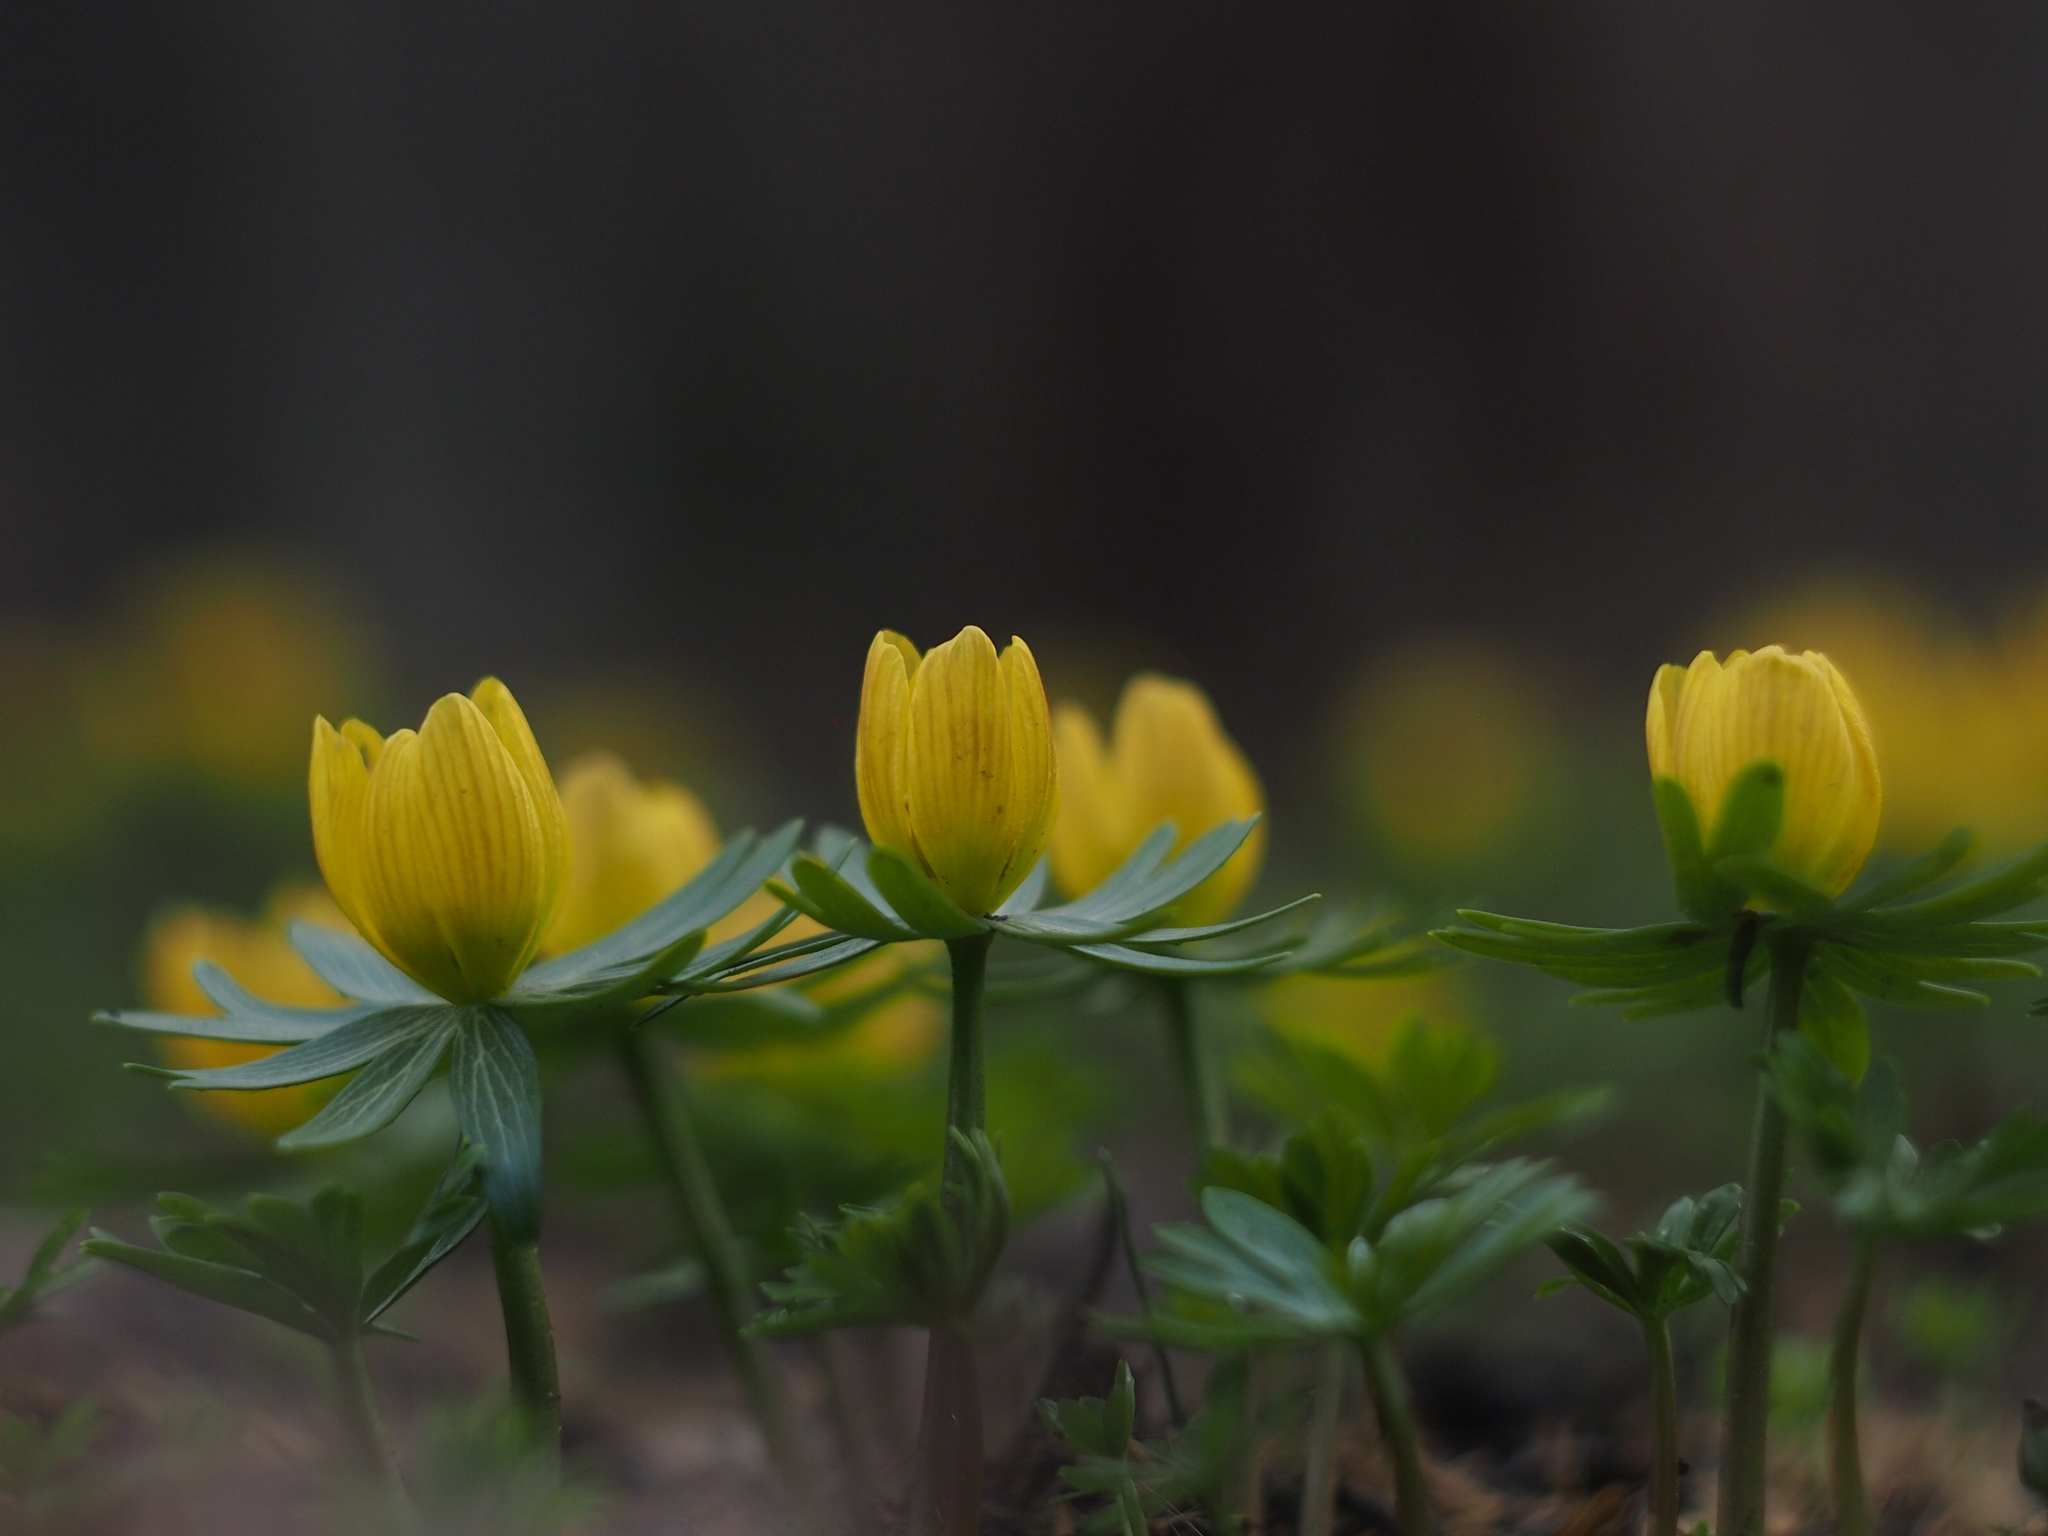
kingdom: Plantae
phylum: Tracheophyta
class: Magnoliopsida
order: Ranunculales
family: Ranunculaceae
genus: Eranthis
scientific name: Eranthis hyemalis
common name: Winter aconite
